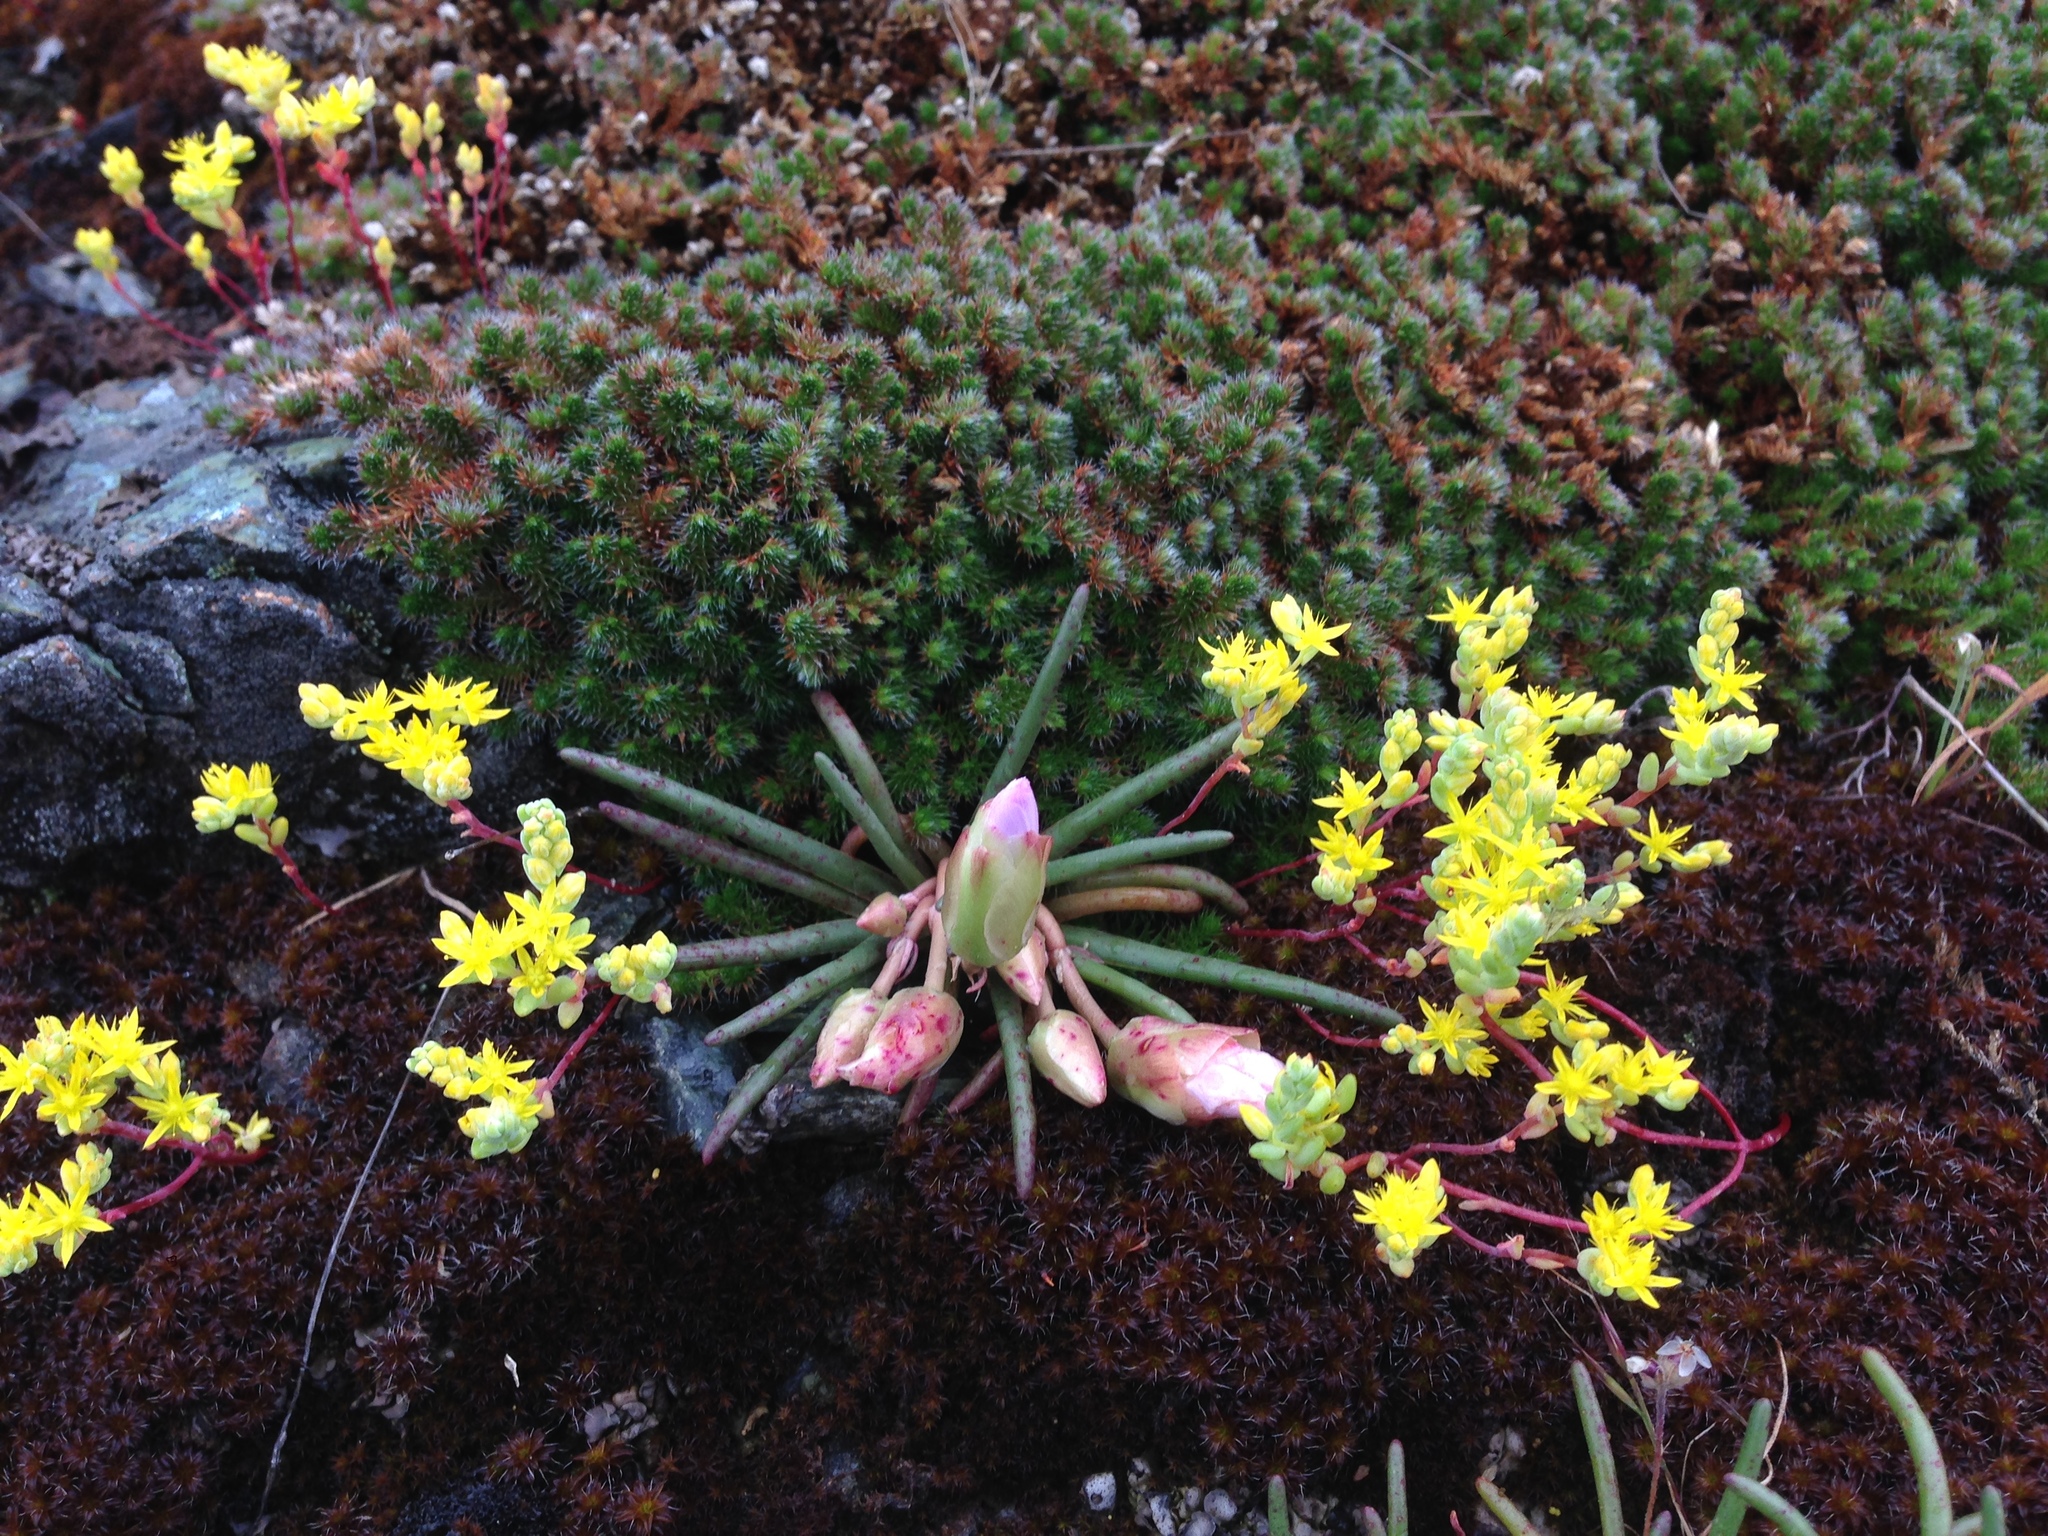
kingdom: Plantae
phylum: Tracheophyta
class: Lycopodiopsida
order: Selaginellales
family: Selaginellaceae
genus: Selaginella
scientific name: Selaginella hansenii
